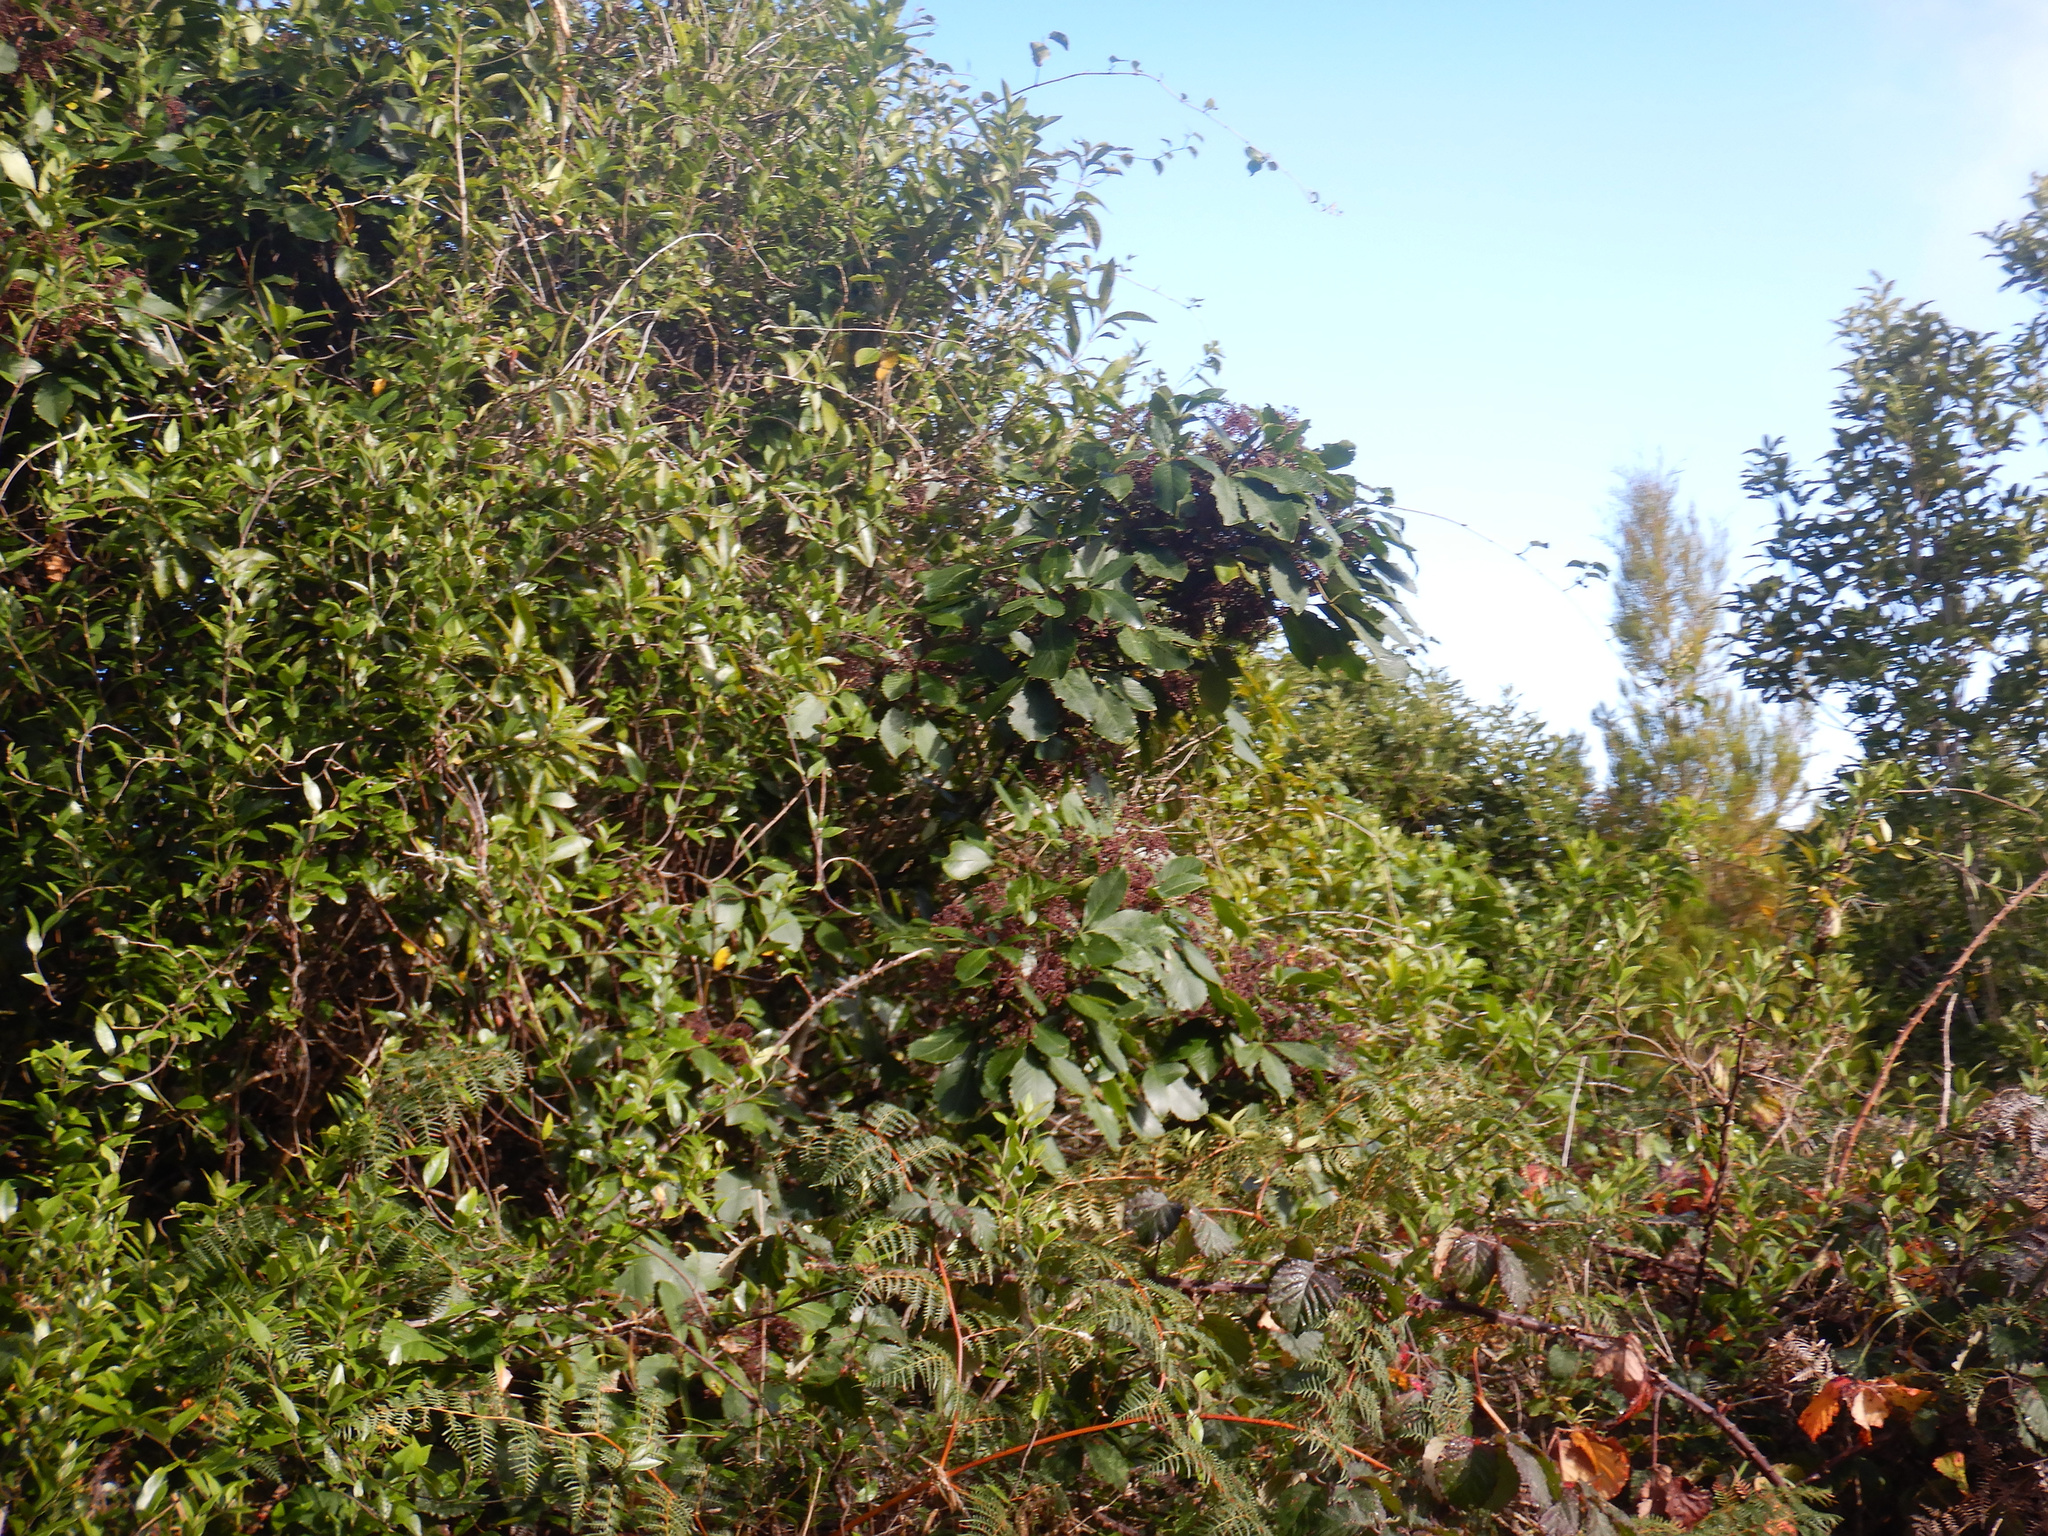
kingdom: Plantae
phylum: Tracheophyta
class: Magnoliopsida
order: Apiales
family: Araliaceae
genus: Neopanax
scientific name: Neopanax arboreus
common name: Five-fingers
